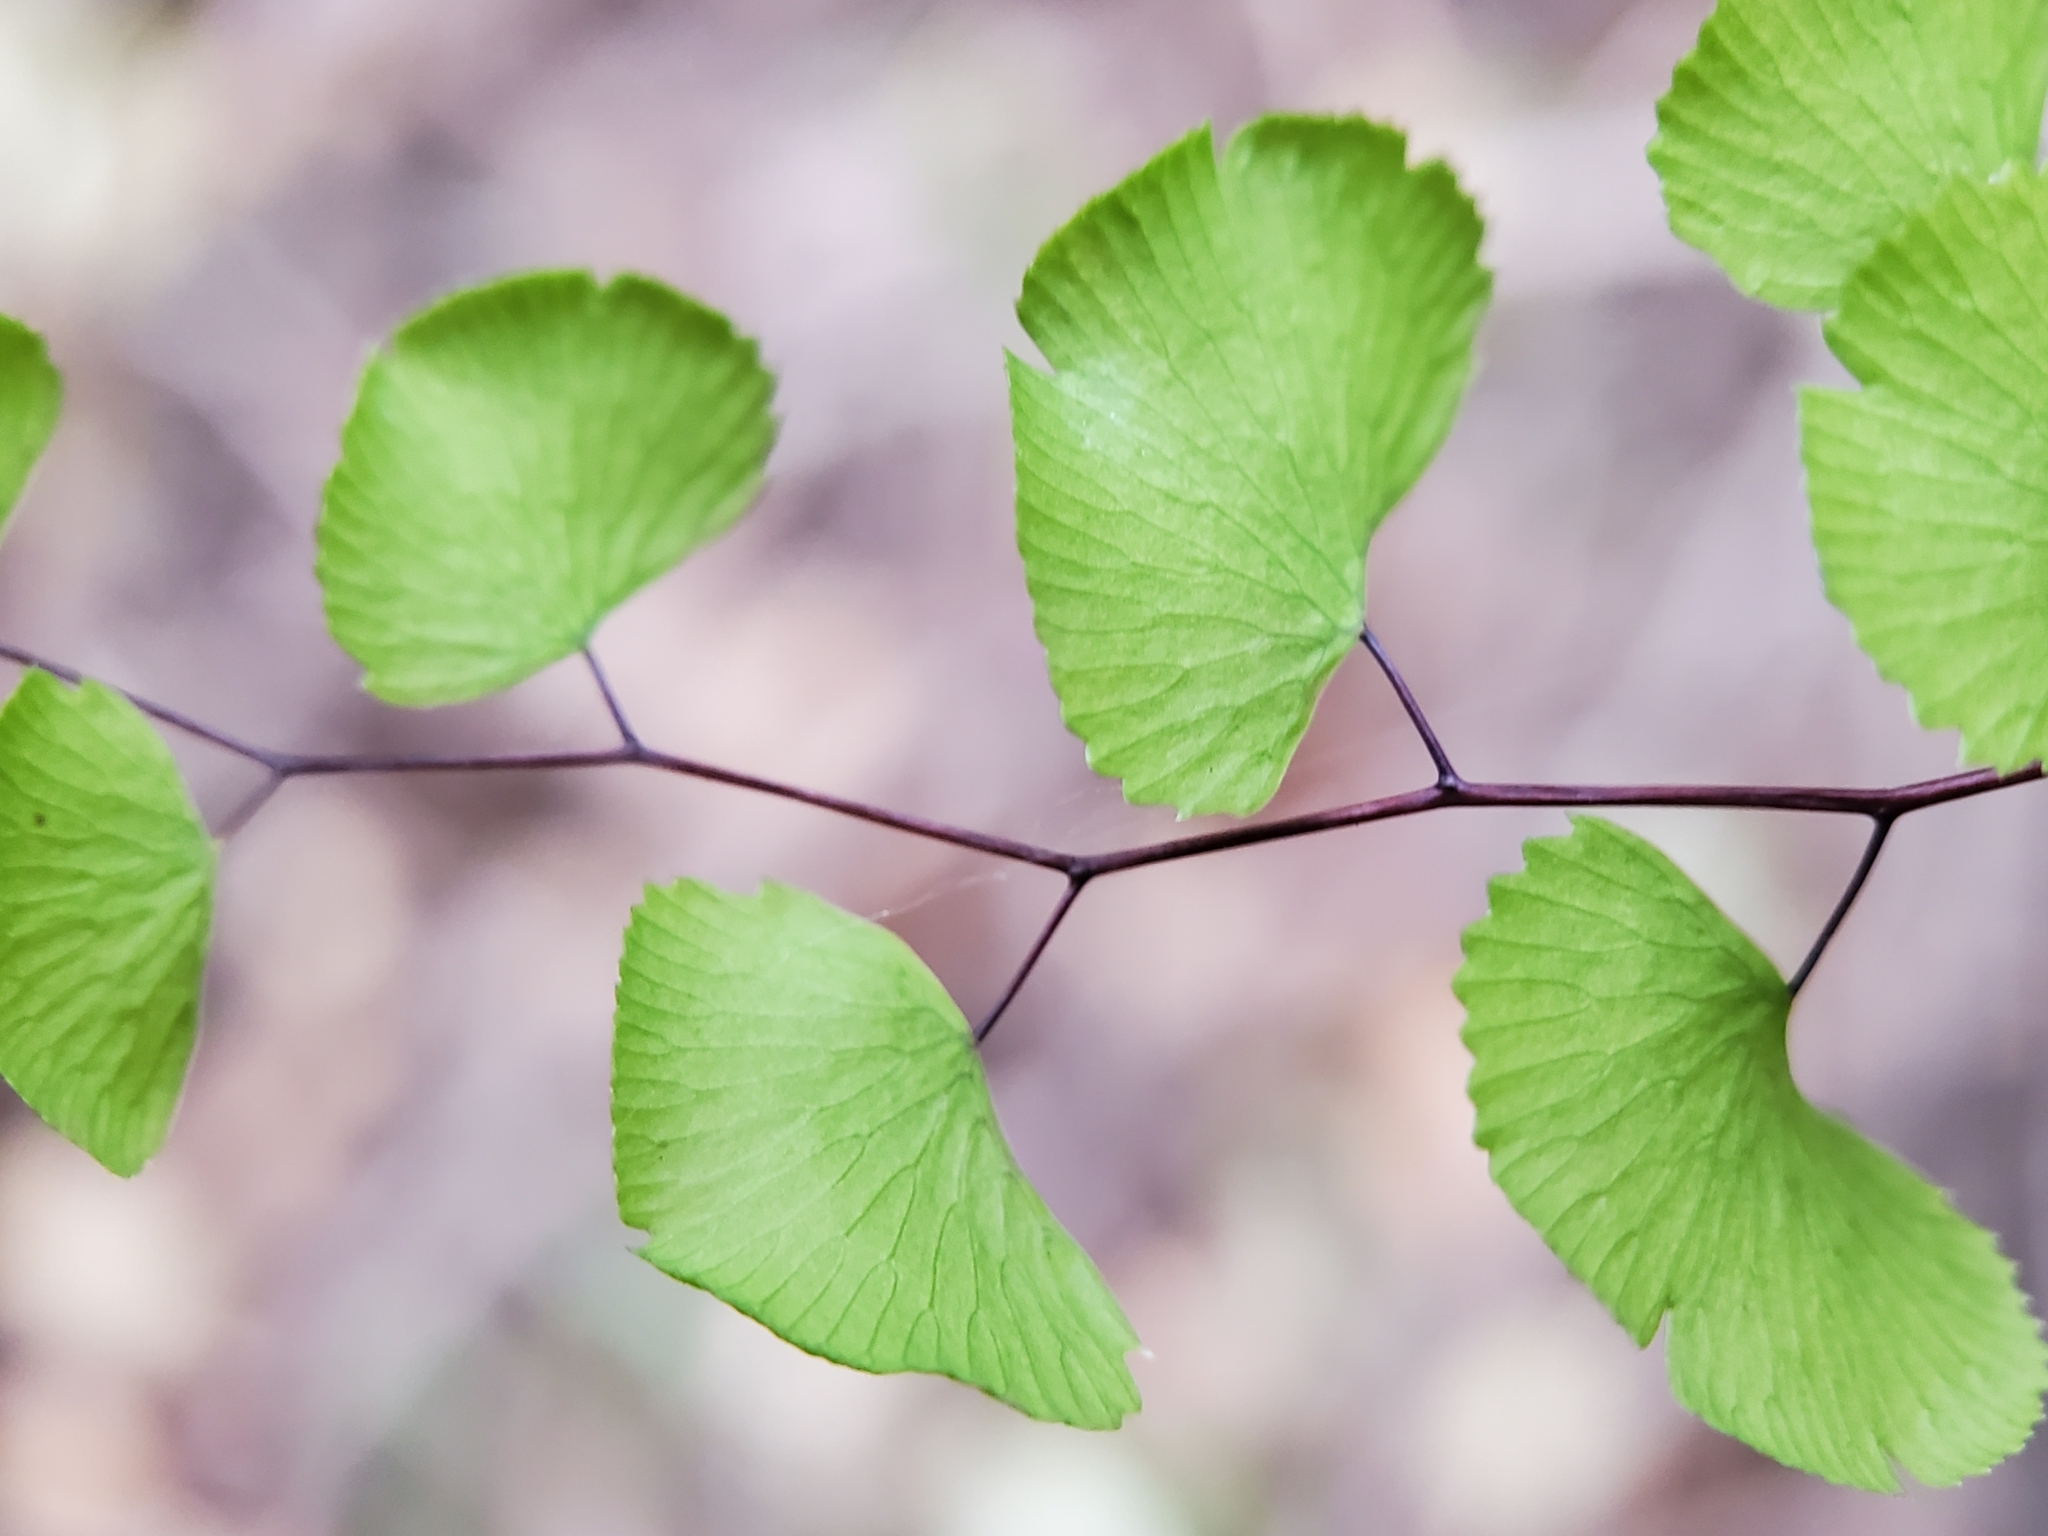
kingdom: Plantae
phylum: Tracheophyta
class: Polypodiopsida
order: Polypodiales
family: Pteridaceae
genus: Adiantum
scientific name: Adiantum jordanii
